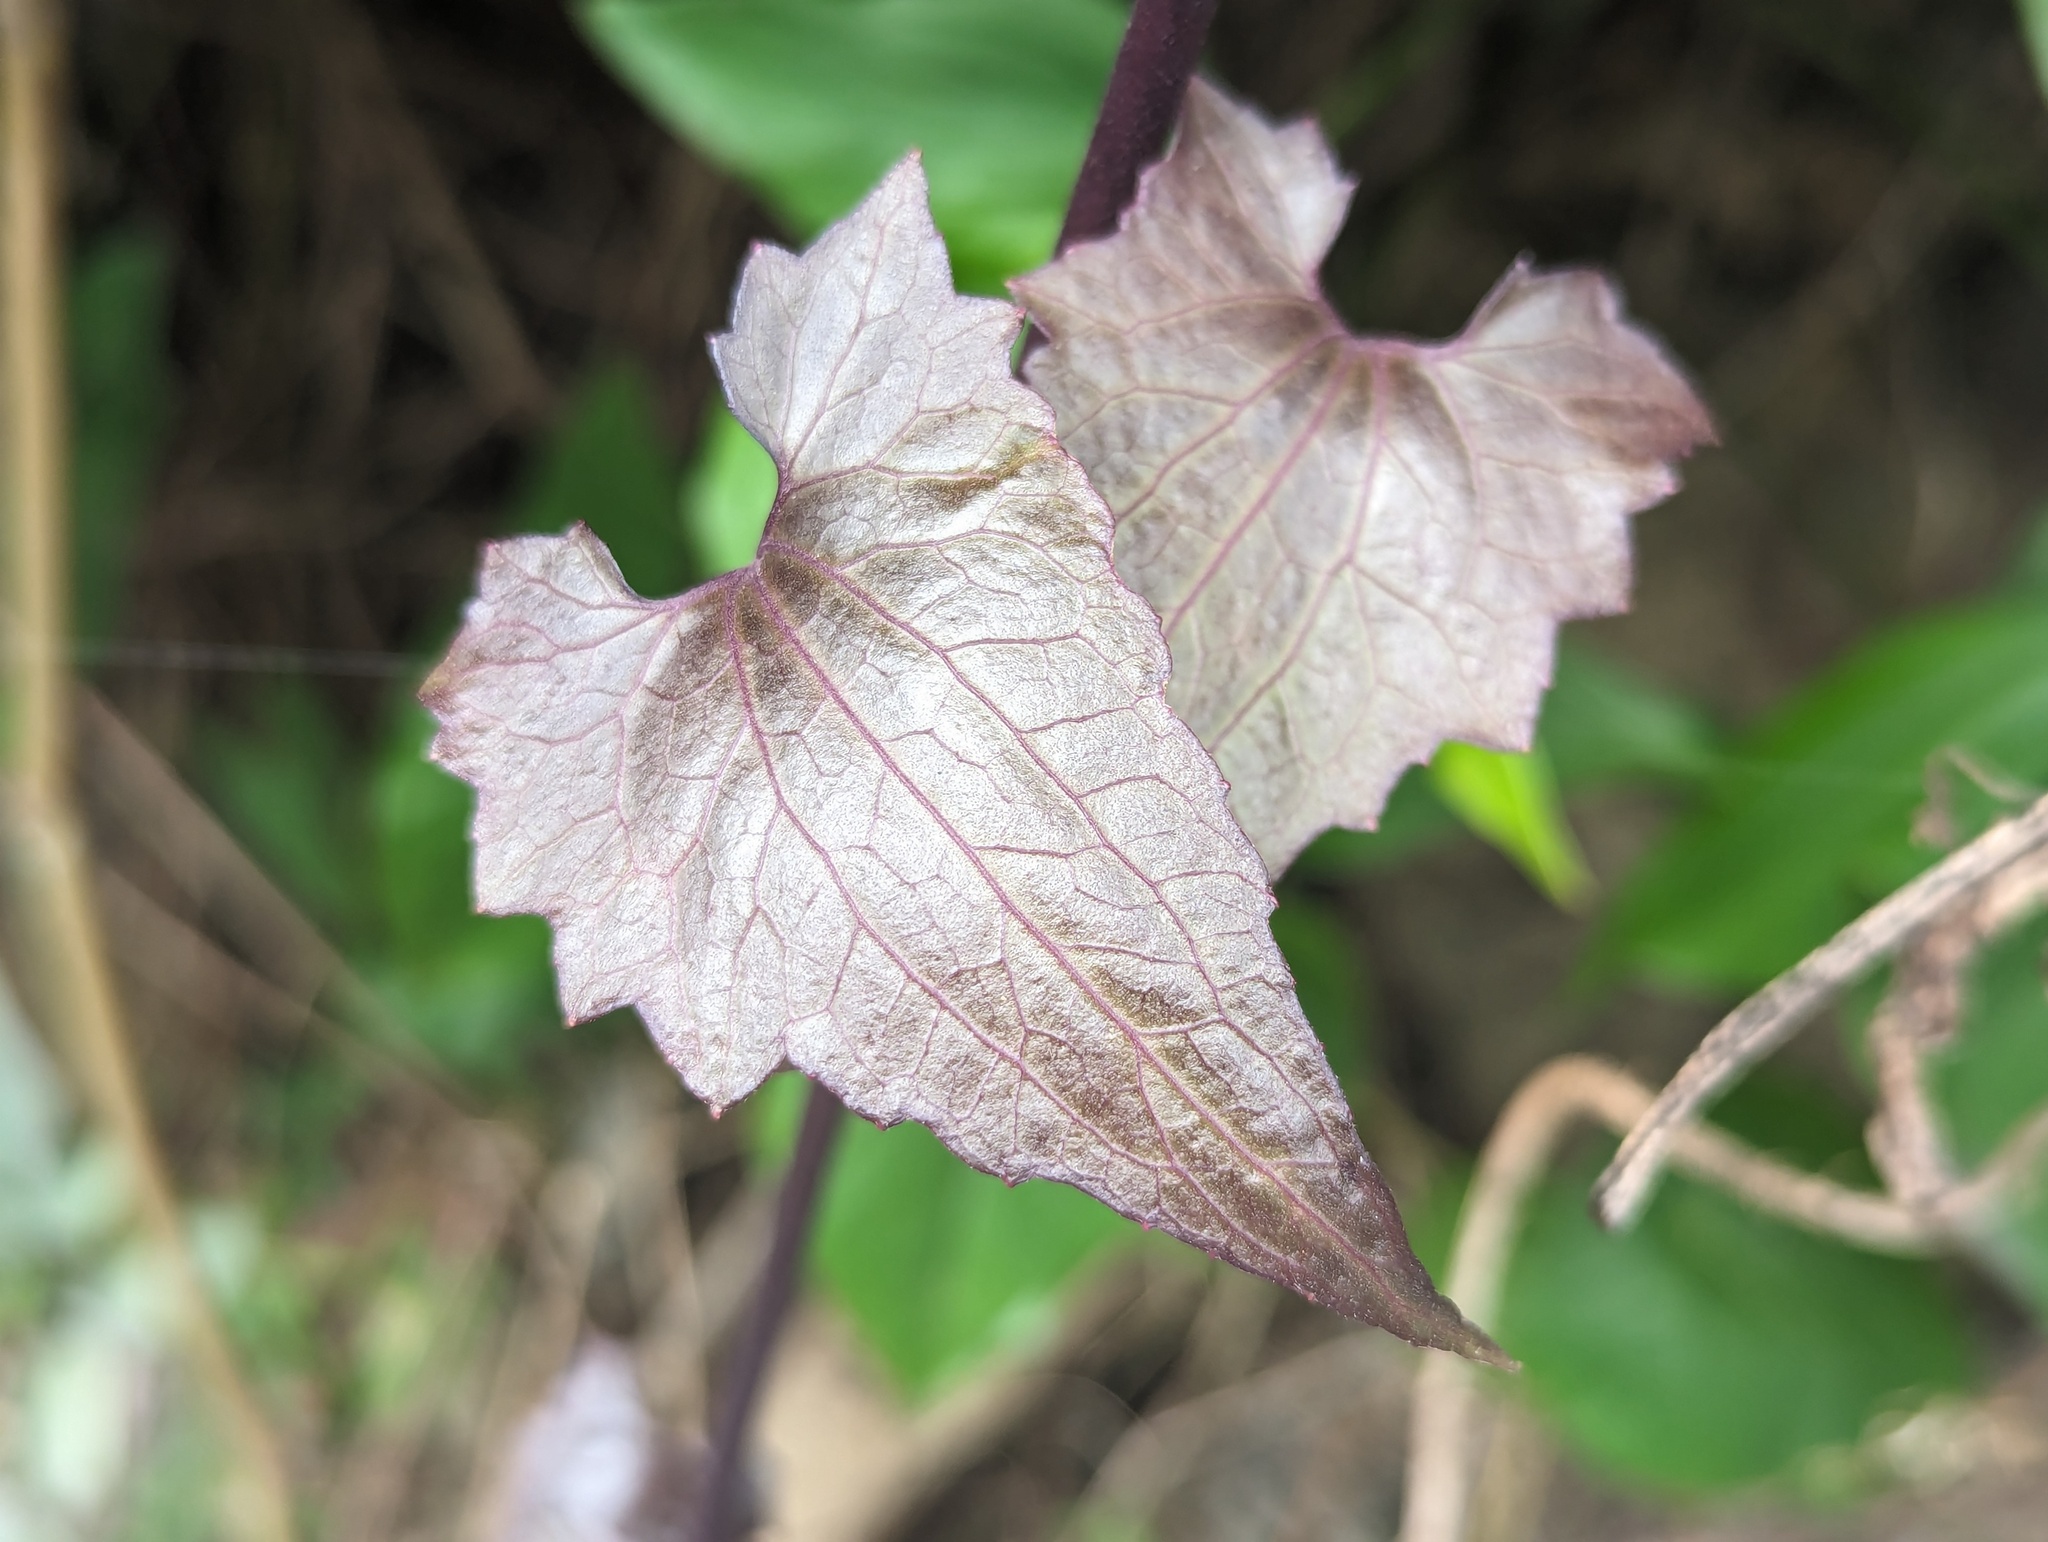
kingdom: Plantae
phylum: Tracheophyta
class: Magnoliopsida
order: Asterales
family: Asteraceae
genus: Mikania
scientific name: Mikania micrantha
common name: Mile-a-minute
